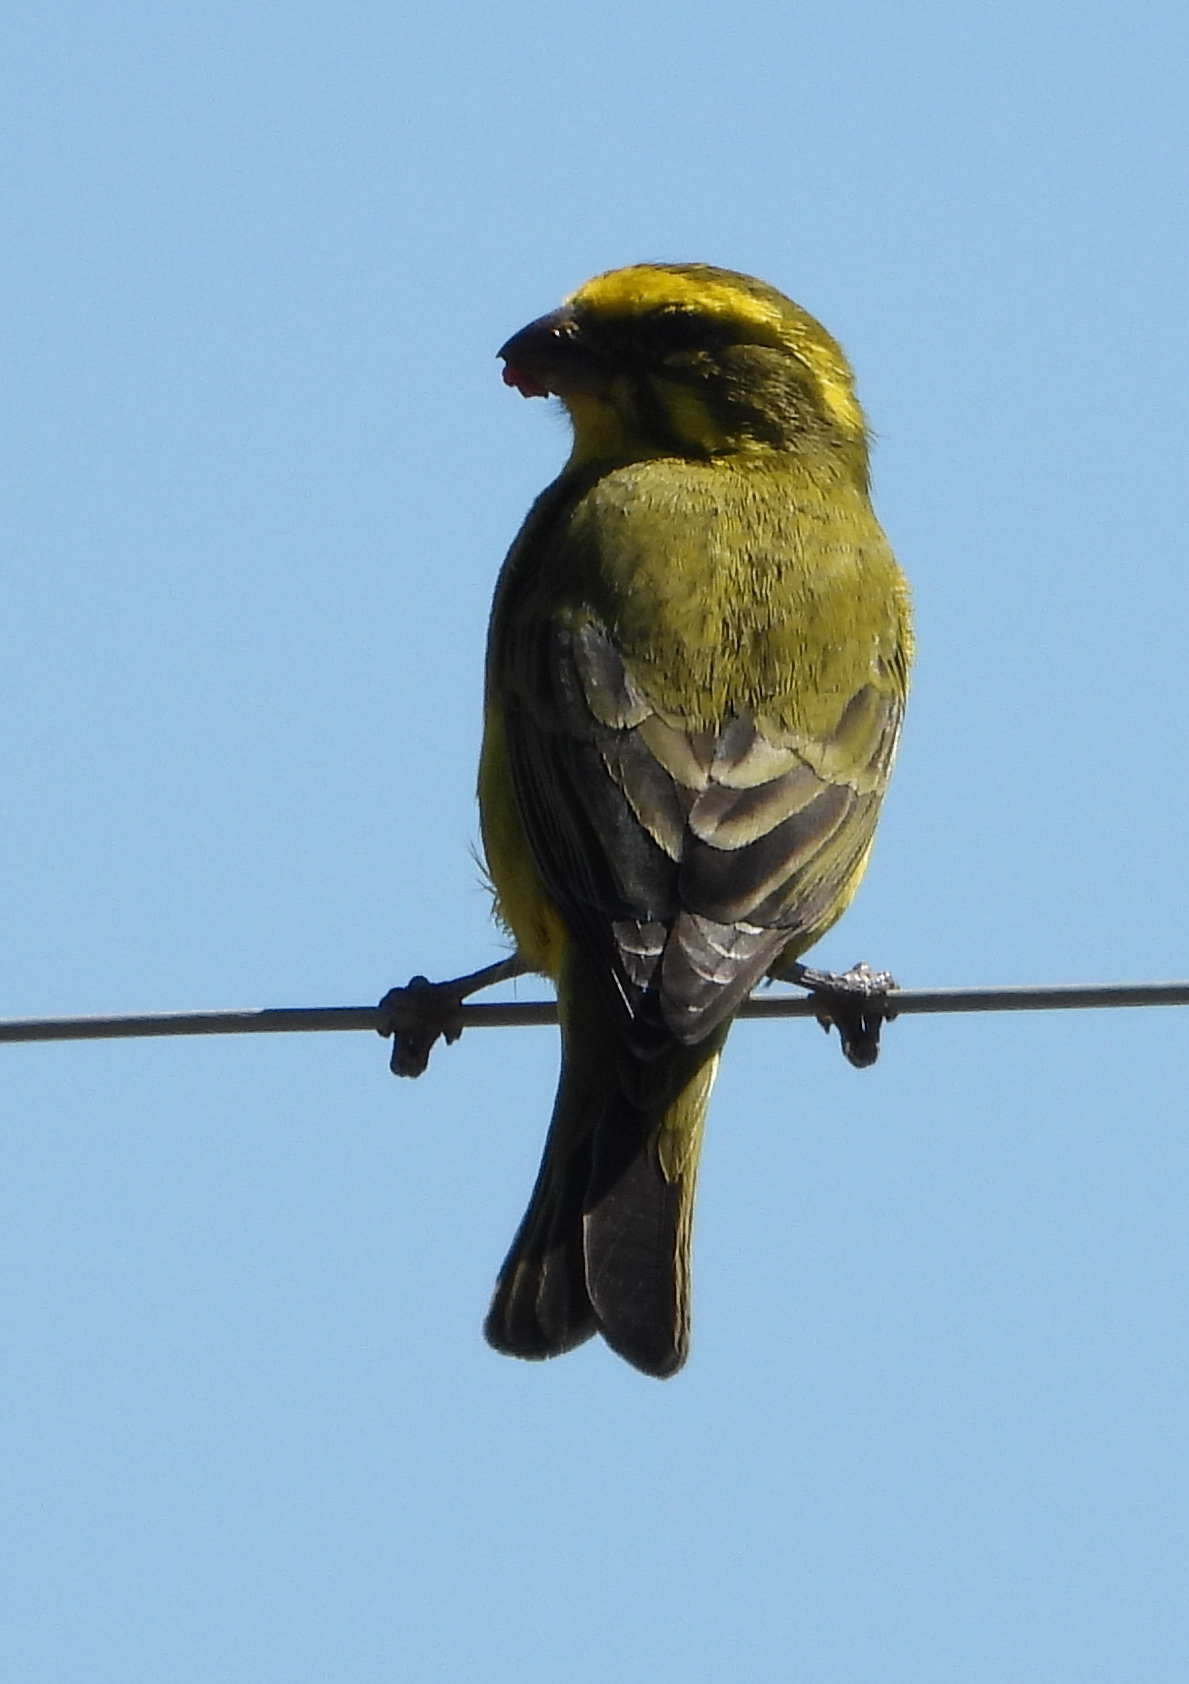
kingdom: Animalia
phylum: Chordata
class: Aves
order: Passeriformes
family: Fringillidae
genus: Crithagra
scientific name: Crithagra flaviventris
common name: Yellow canary
